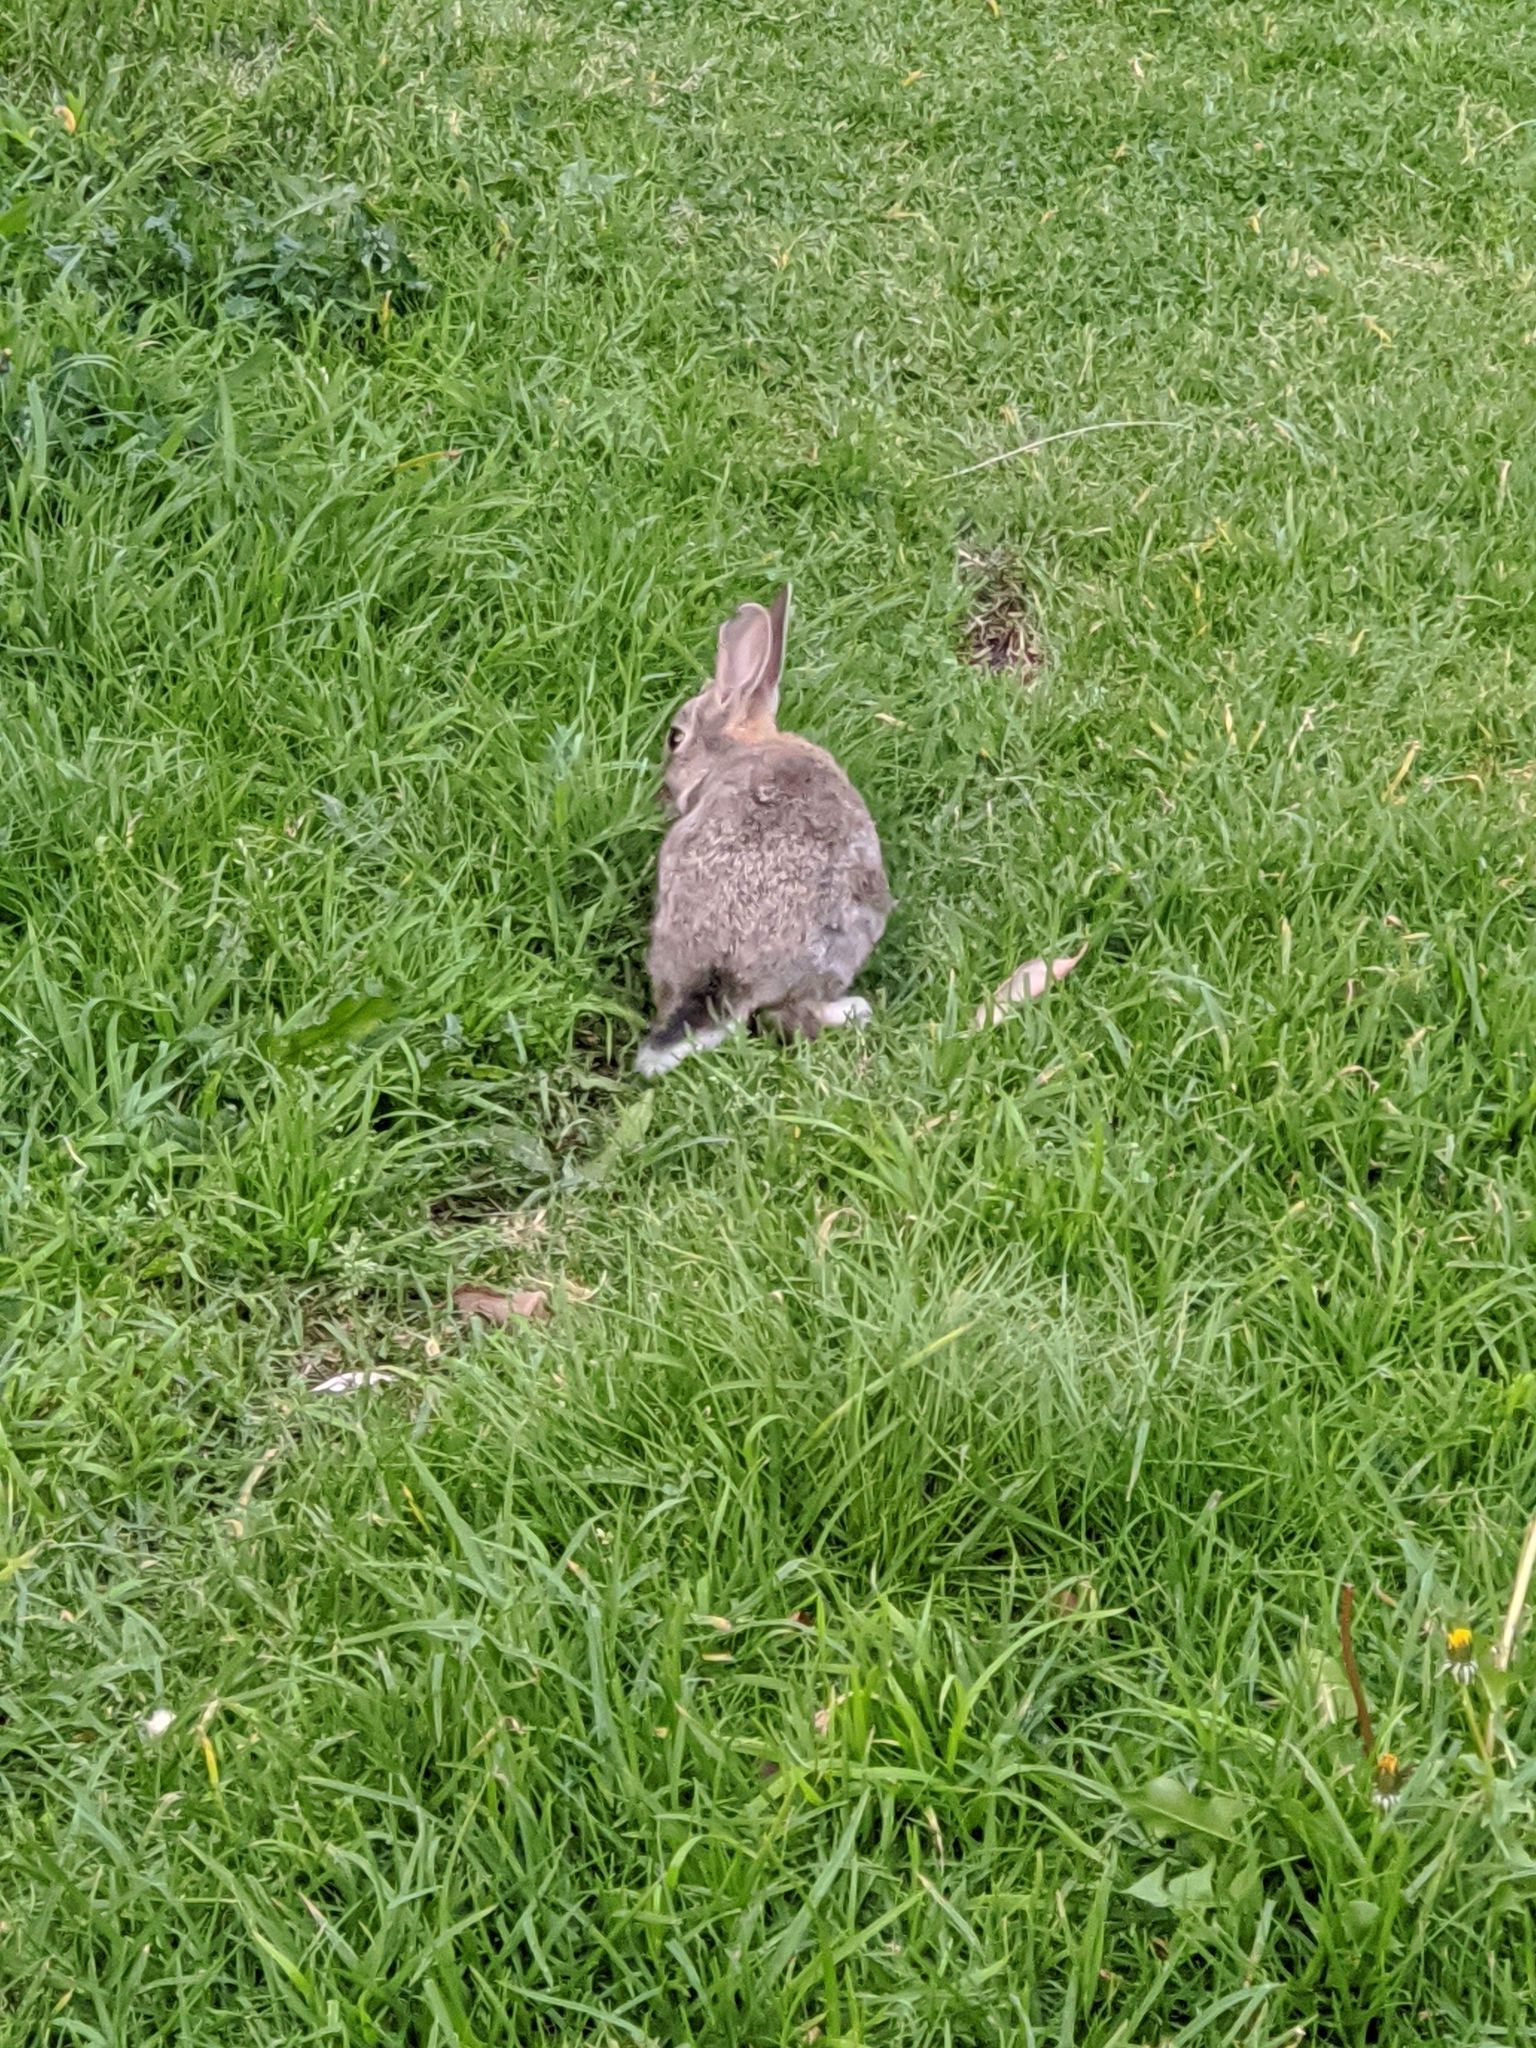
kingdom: Animalia
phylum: Chordata
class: Mammalia
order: Lagomorpha
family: Leporidae
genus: Oryctolagus
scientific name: Oryctolagus cuniculus
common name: European rabbit
